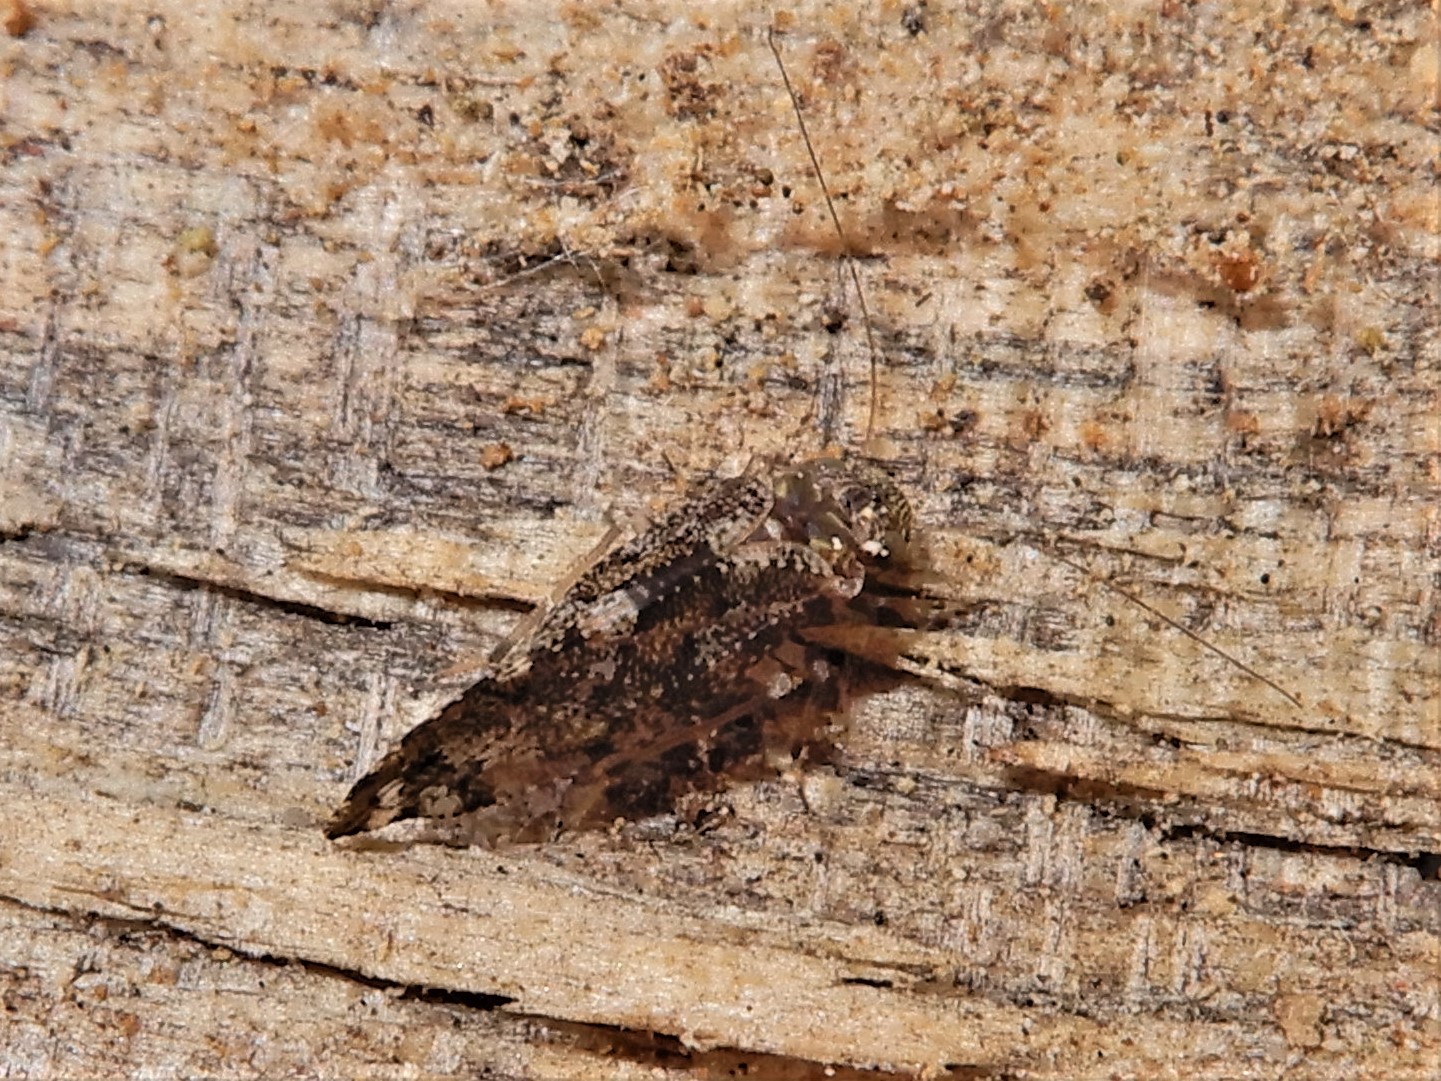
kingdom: Animalia
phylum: Arthropoda
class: Insecta
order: Psocodea
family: Myopsocidae
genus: Nimbopsocus
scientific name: Nimbopsocus australis
